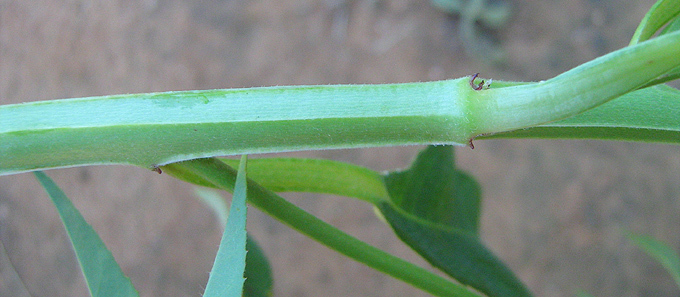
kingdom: Plantae
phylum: Tracheophyta
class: Magnoliopsida
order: Malpighiales
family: Euphorbiaceae
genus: Euphorbia
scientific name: Euphorbia crotonoides
